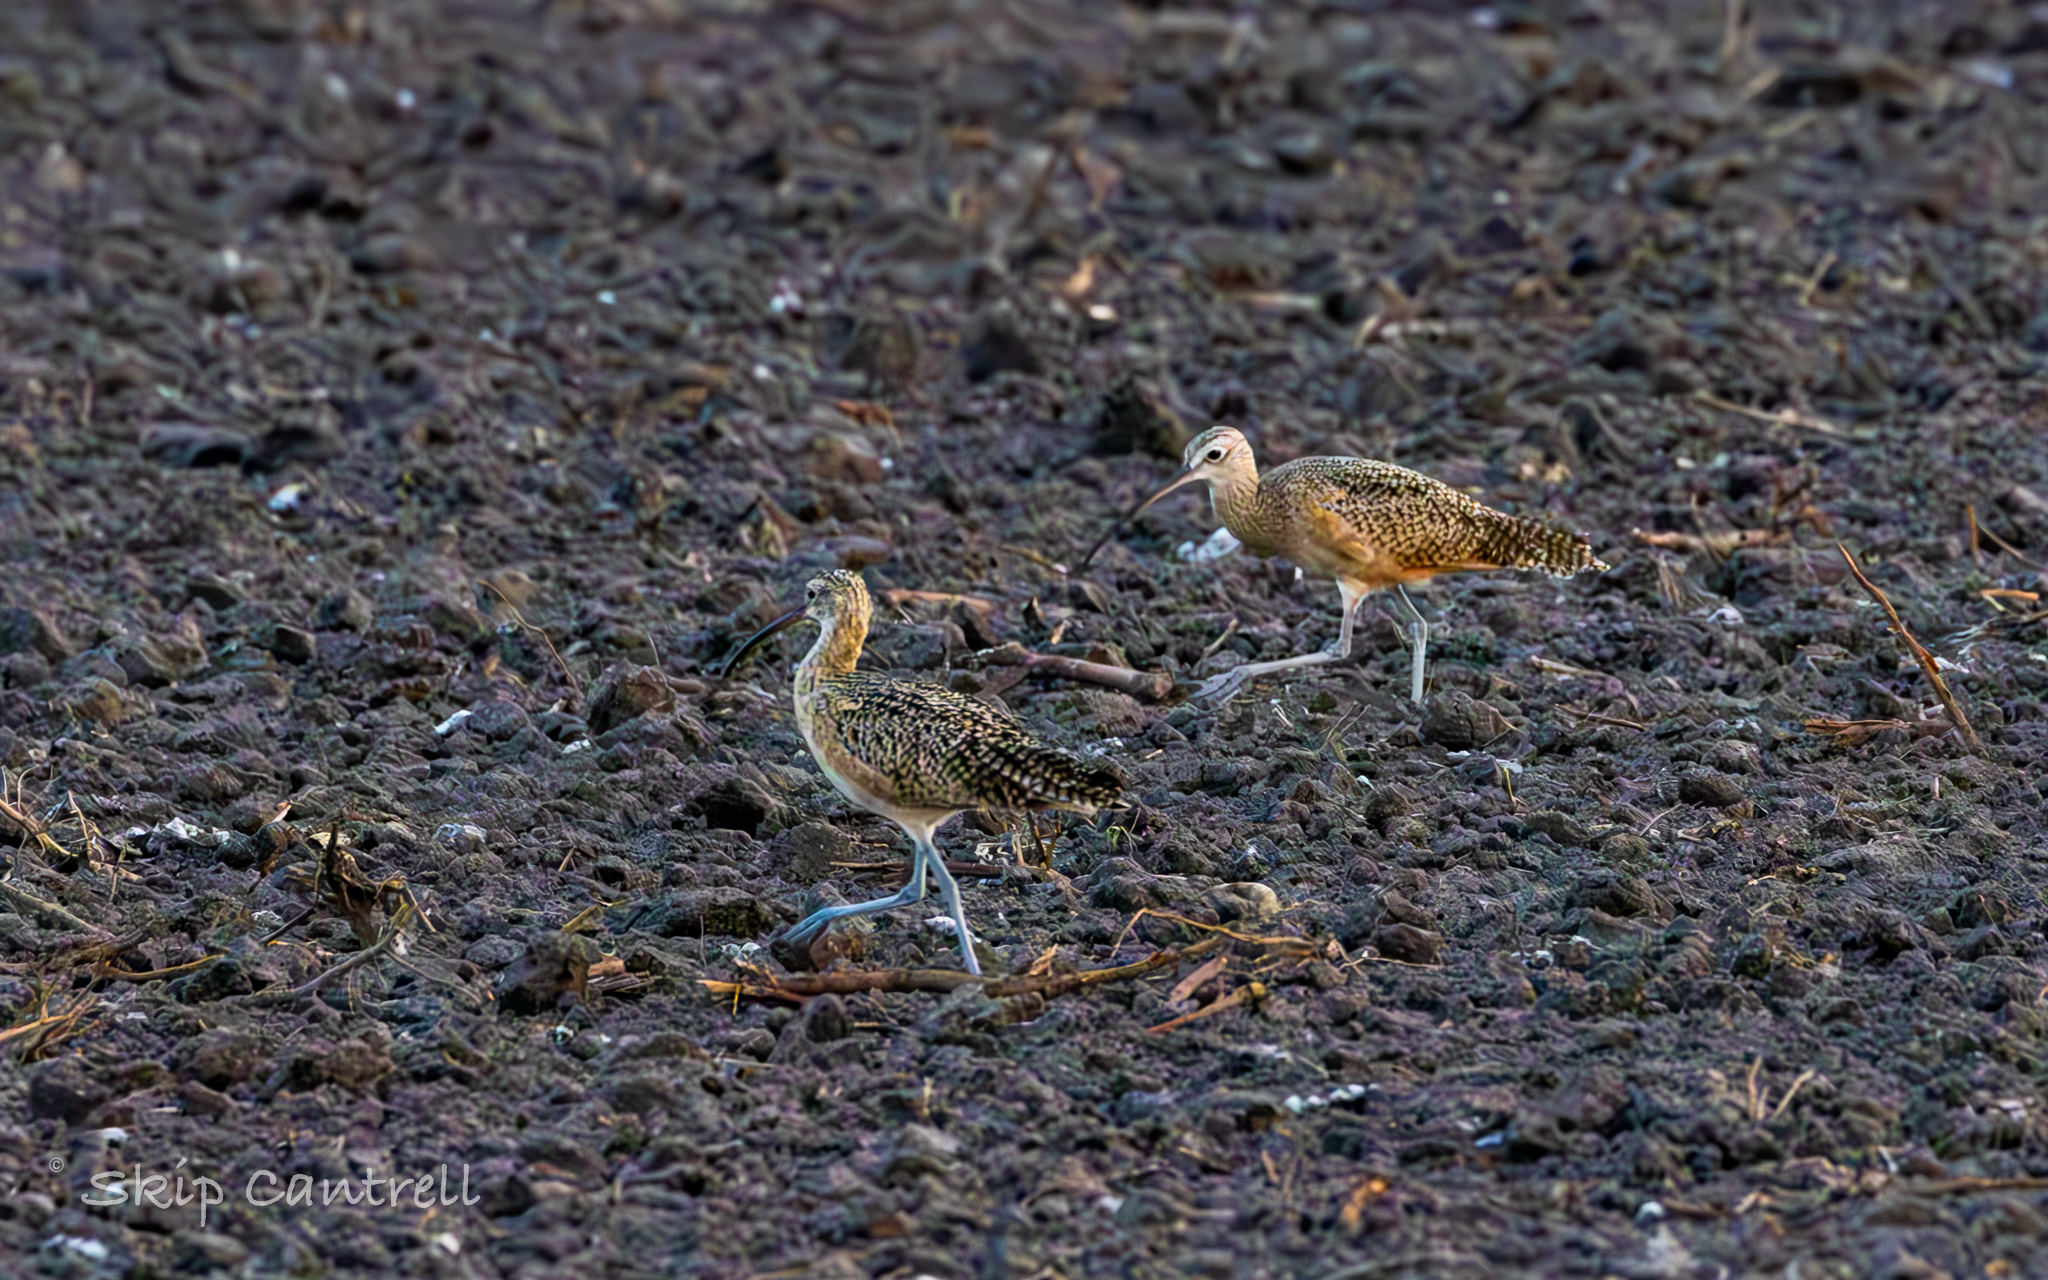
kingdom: Animalia
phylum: Chordata
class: Aves
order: Charadriiformes
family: Scolopacidae
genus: Numenius
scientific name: Numenius americanus
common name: Long-billed curlew
